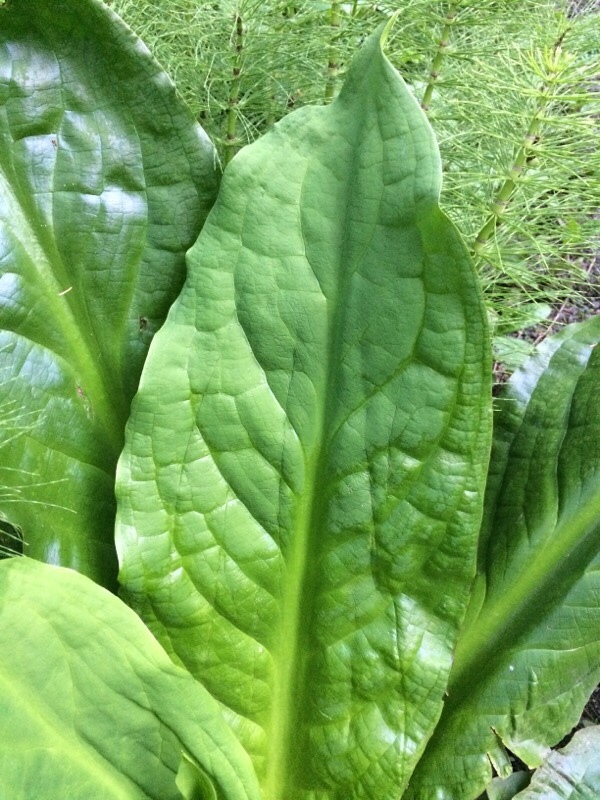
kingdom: Plantae
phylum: Tracheophyta
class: Liliopsida
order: Alismatales
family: Araceae
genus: Lysichiton
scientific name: Lysichiton americanus
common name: American skunk cabbage
